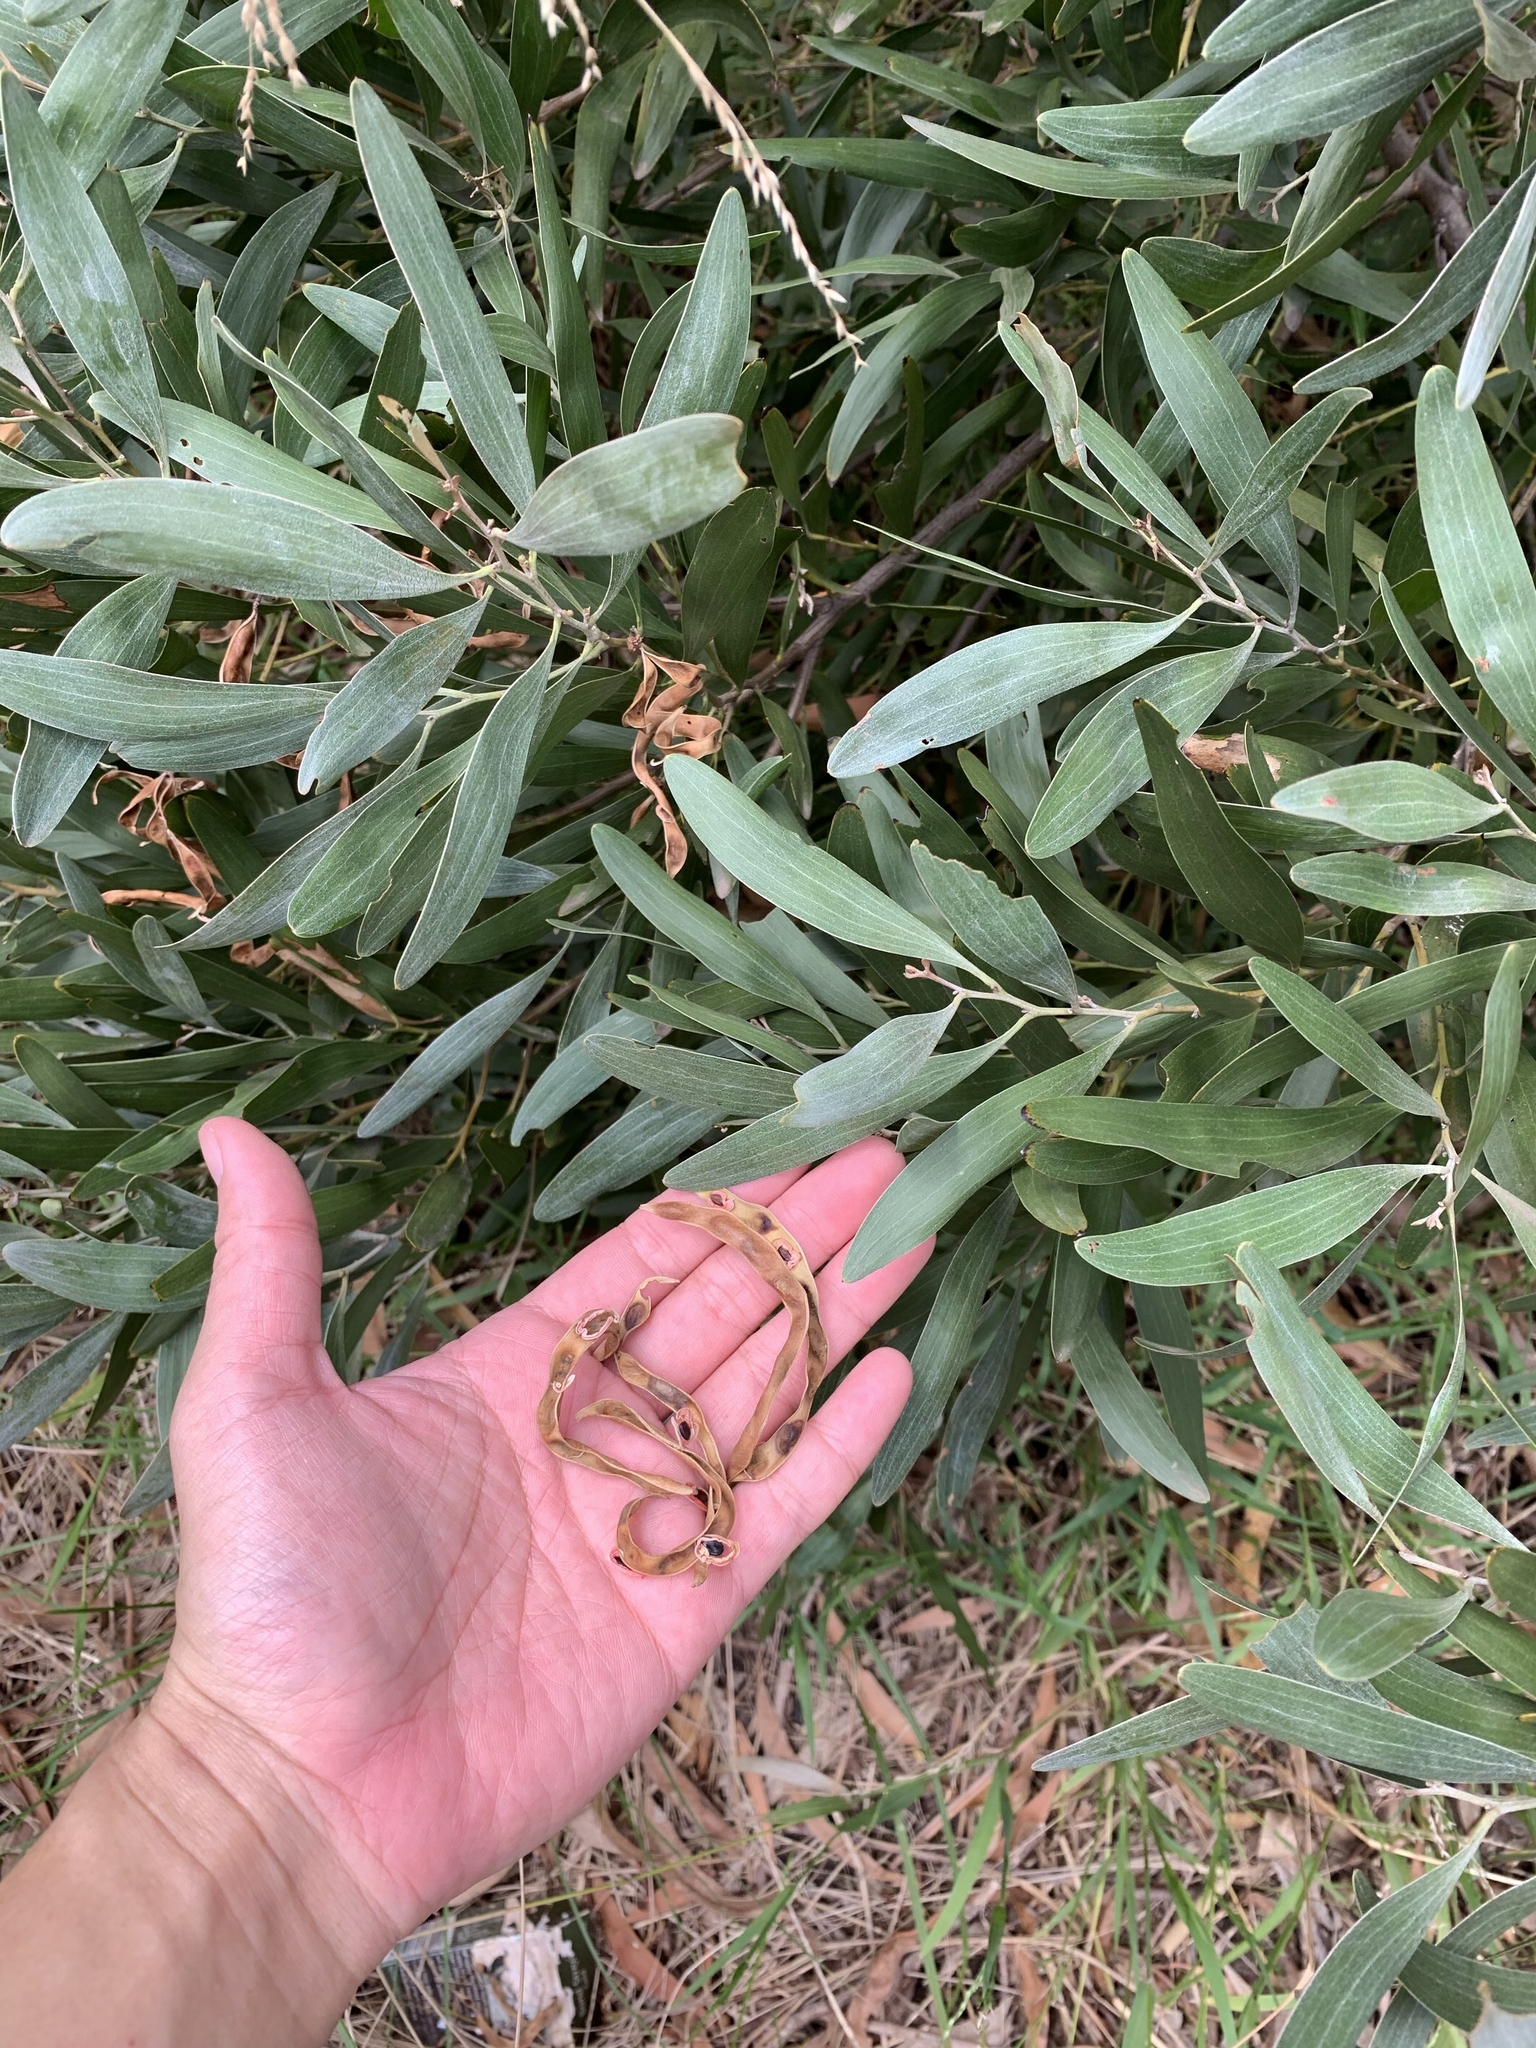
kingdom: Plantae
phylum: Tracheophyta
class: Magnoliopsida
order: Fabales
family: Fabaceae
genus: Acacia
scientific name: Acacia melanoxylon
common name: Blackwood
